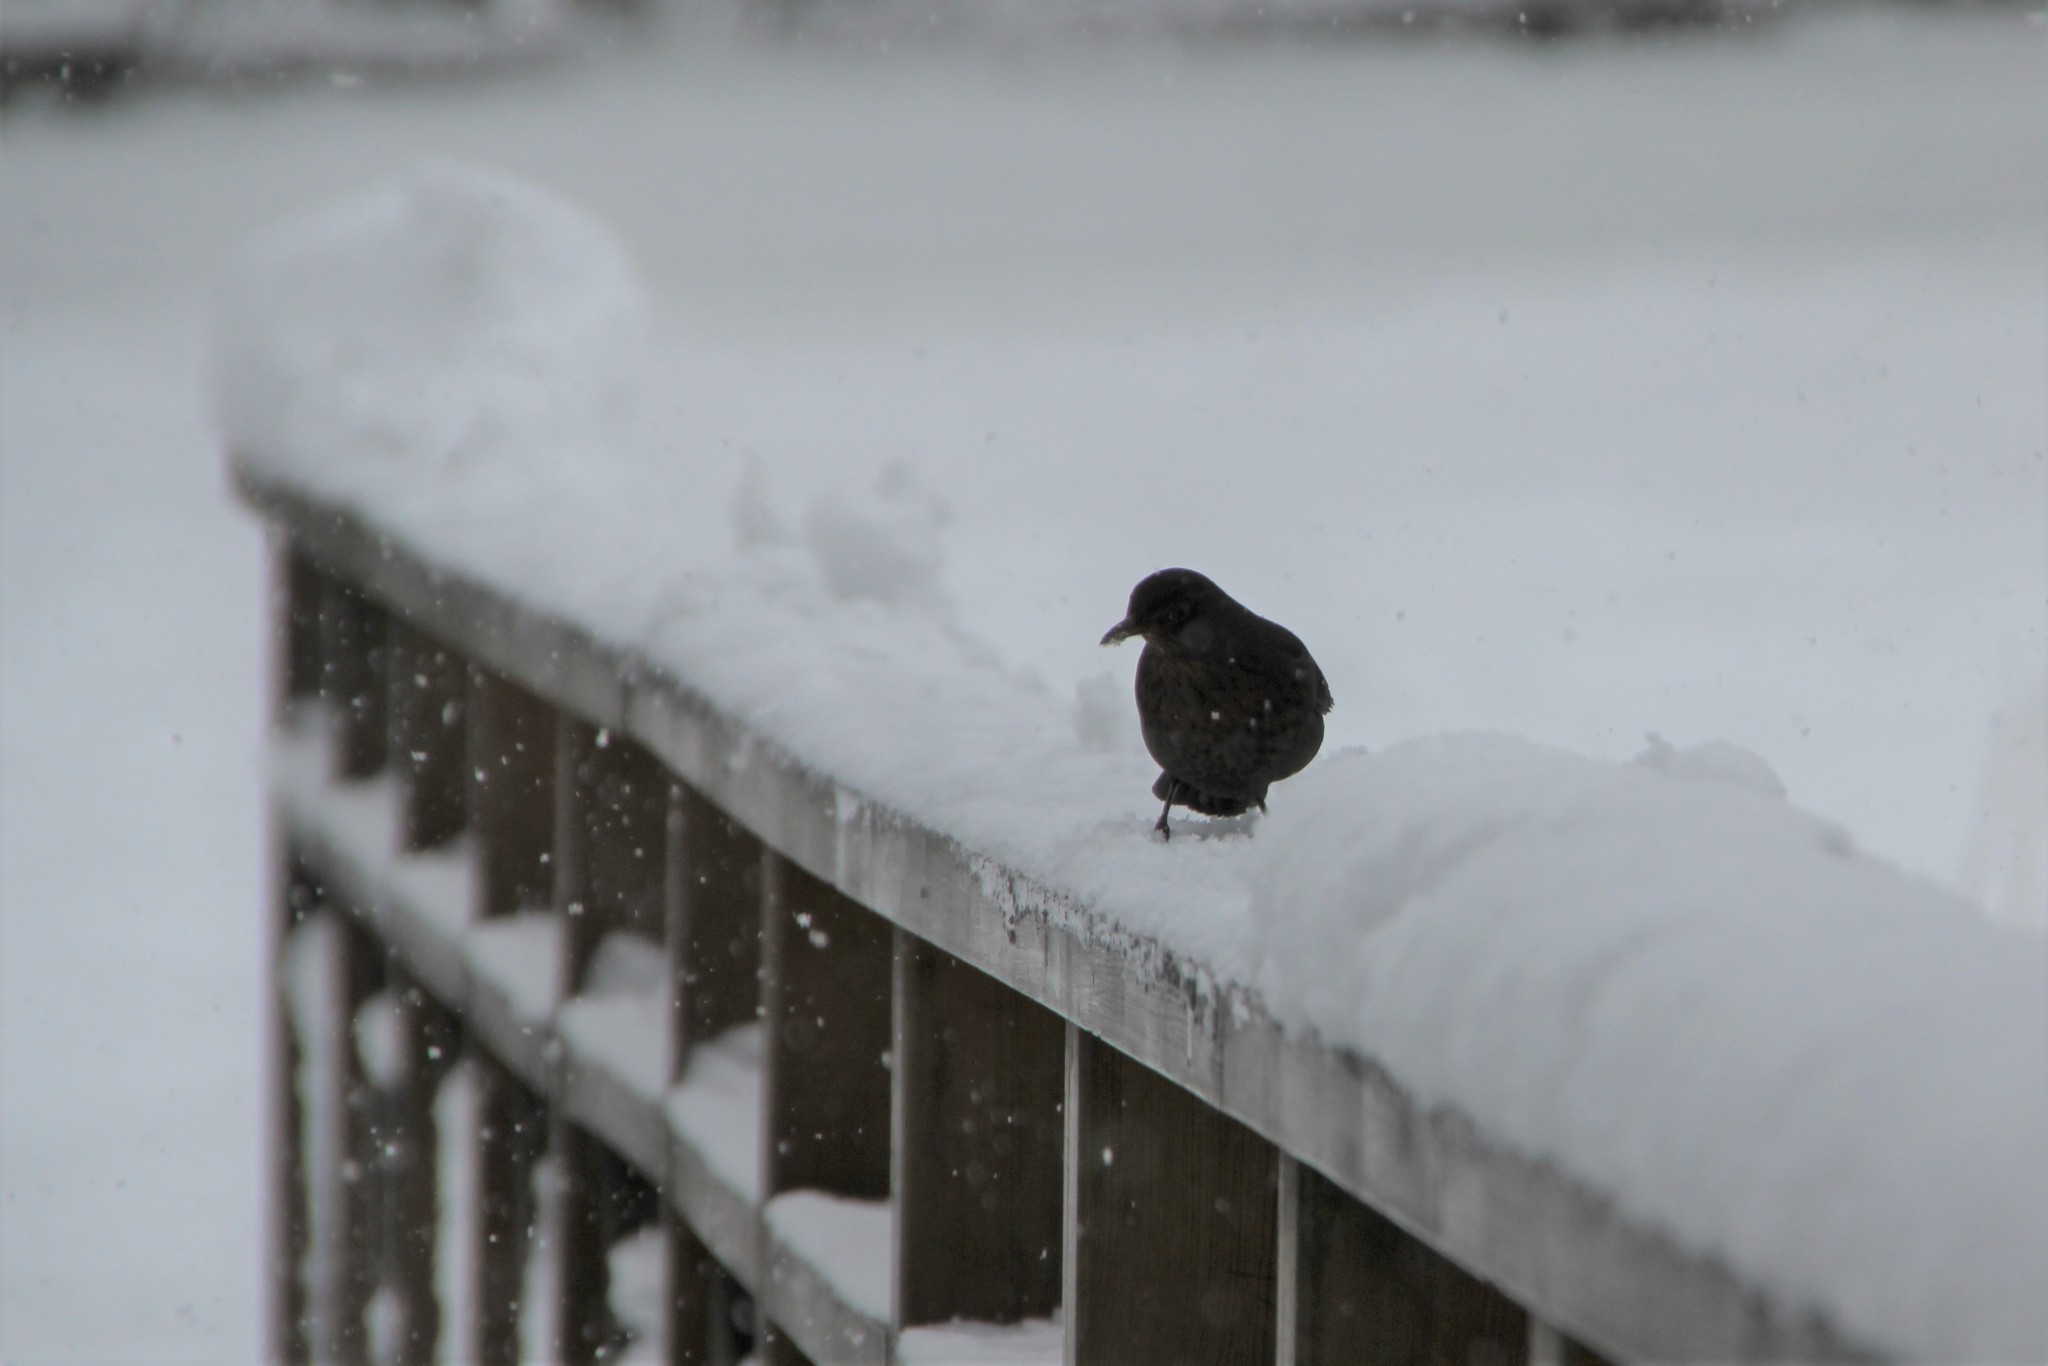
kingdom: Animalia
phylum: Chordata
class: Aves
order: Passeriformes
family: Turdidae
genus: Turdus
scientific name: Turdus merula
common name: Common blackbird
